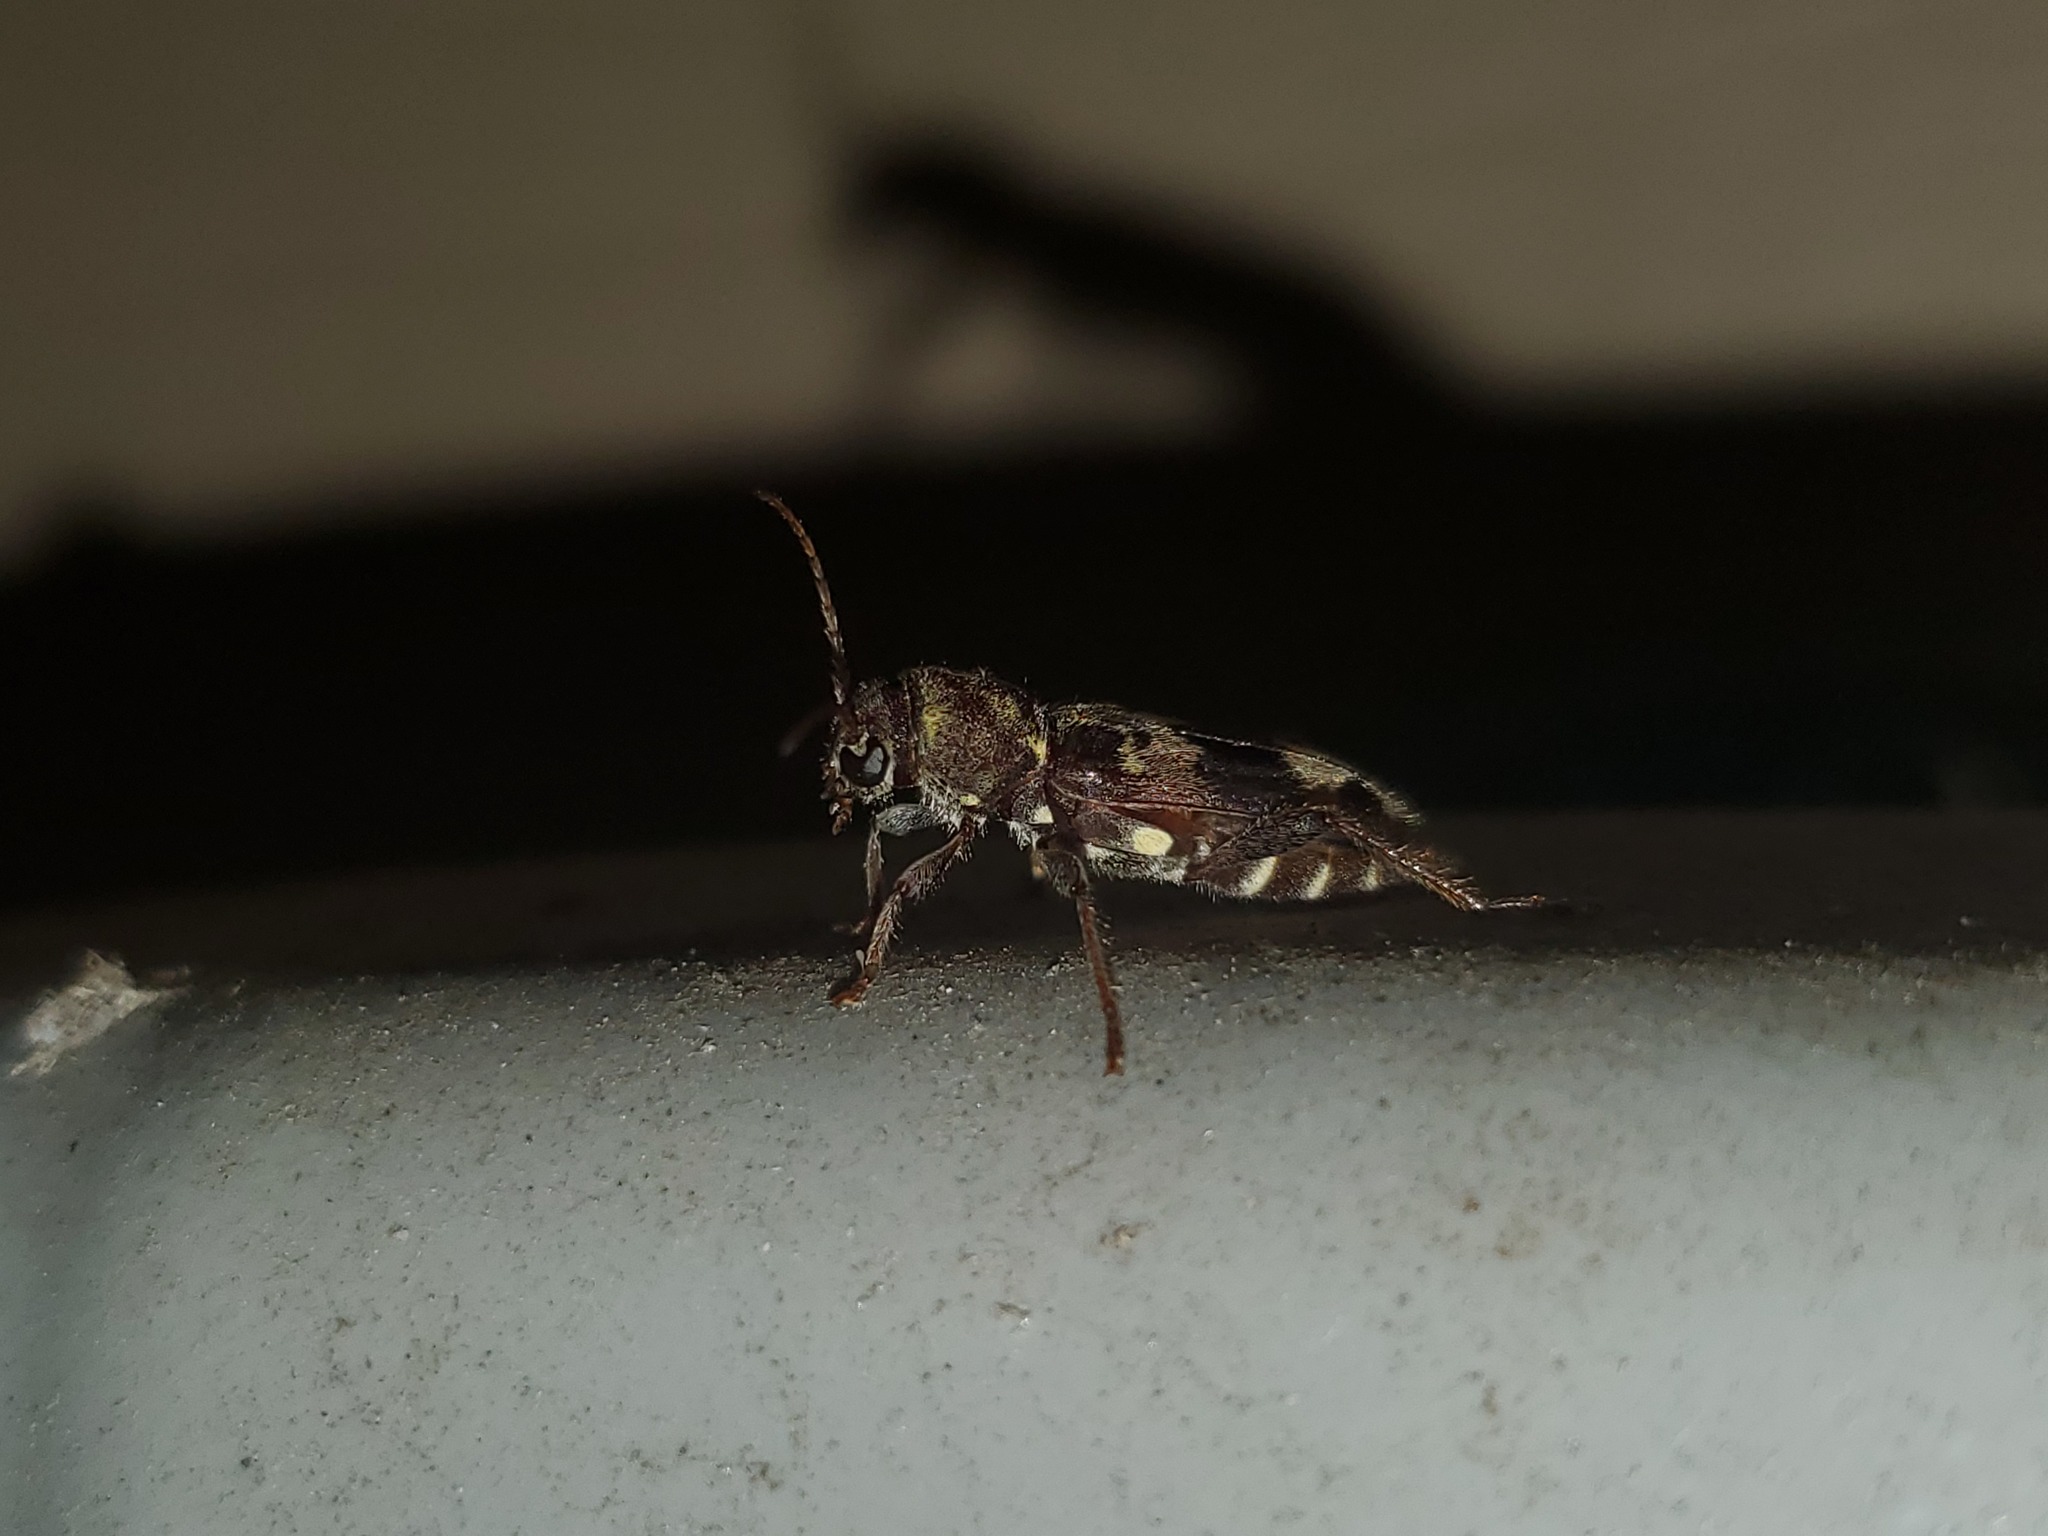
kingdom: Animalia
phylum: Arthropoda
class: Insecta
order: Coleoptera
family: Cerambycidae
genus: Xylotrechus
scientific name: Xylotrechus colonus
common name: Long-horned beetle
